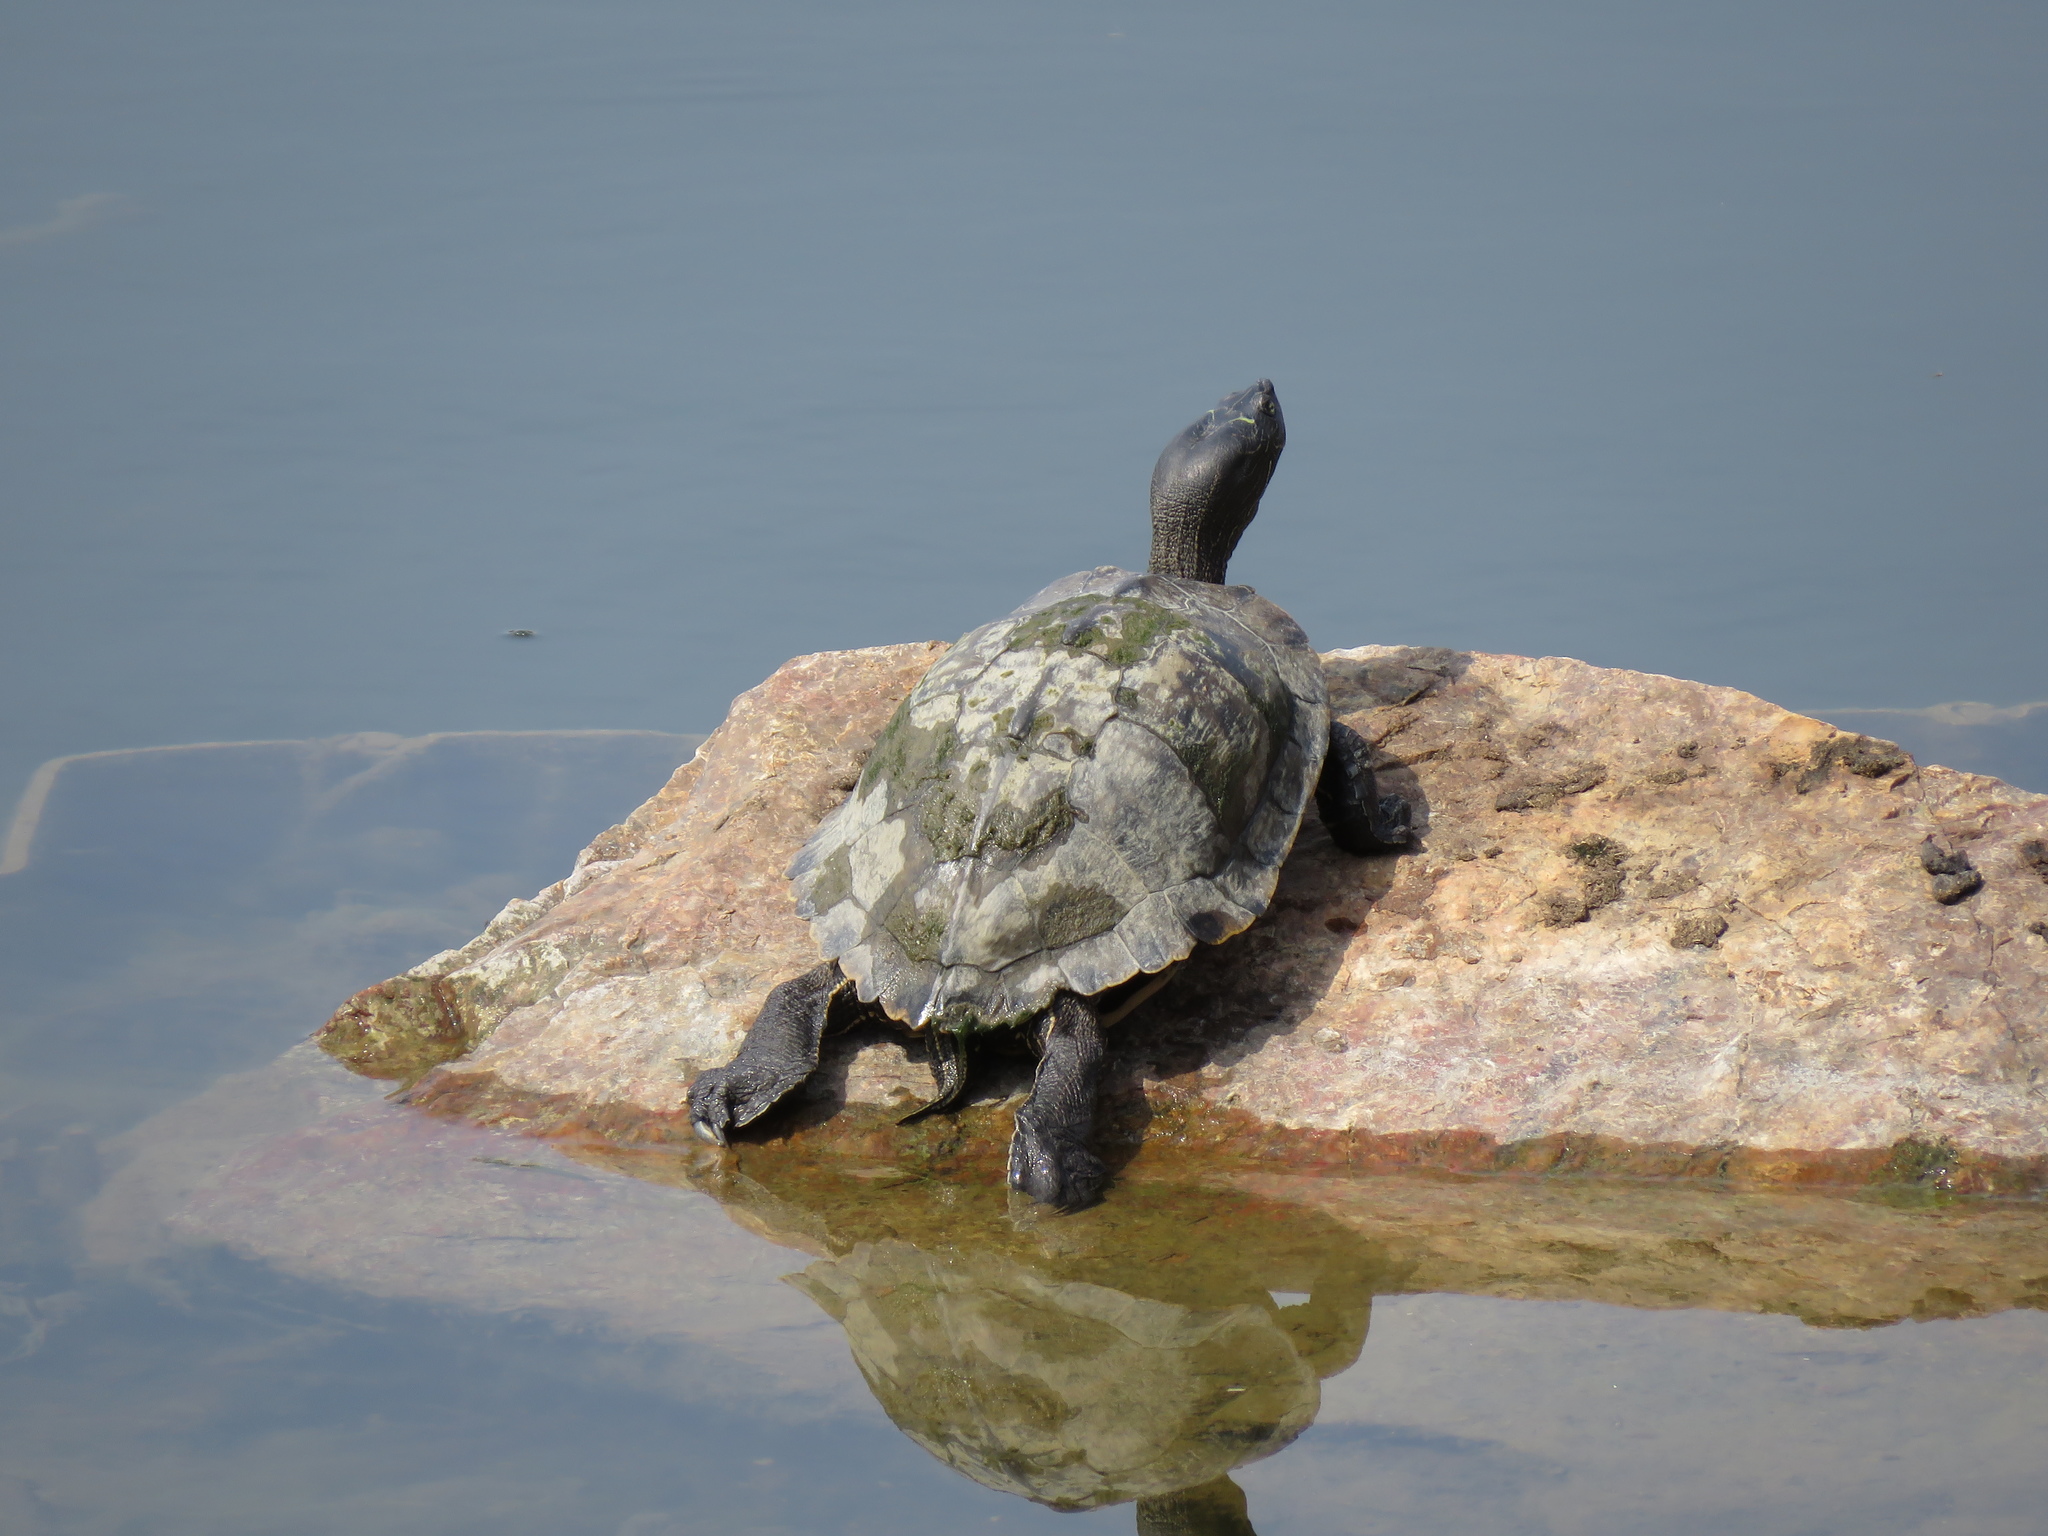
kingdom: Animalia
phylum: Chordata
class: Testudines
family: Emydidae
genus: Graptemys
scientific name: Graptemys pseudogeographica
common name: False map turtle
